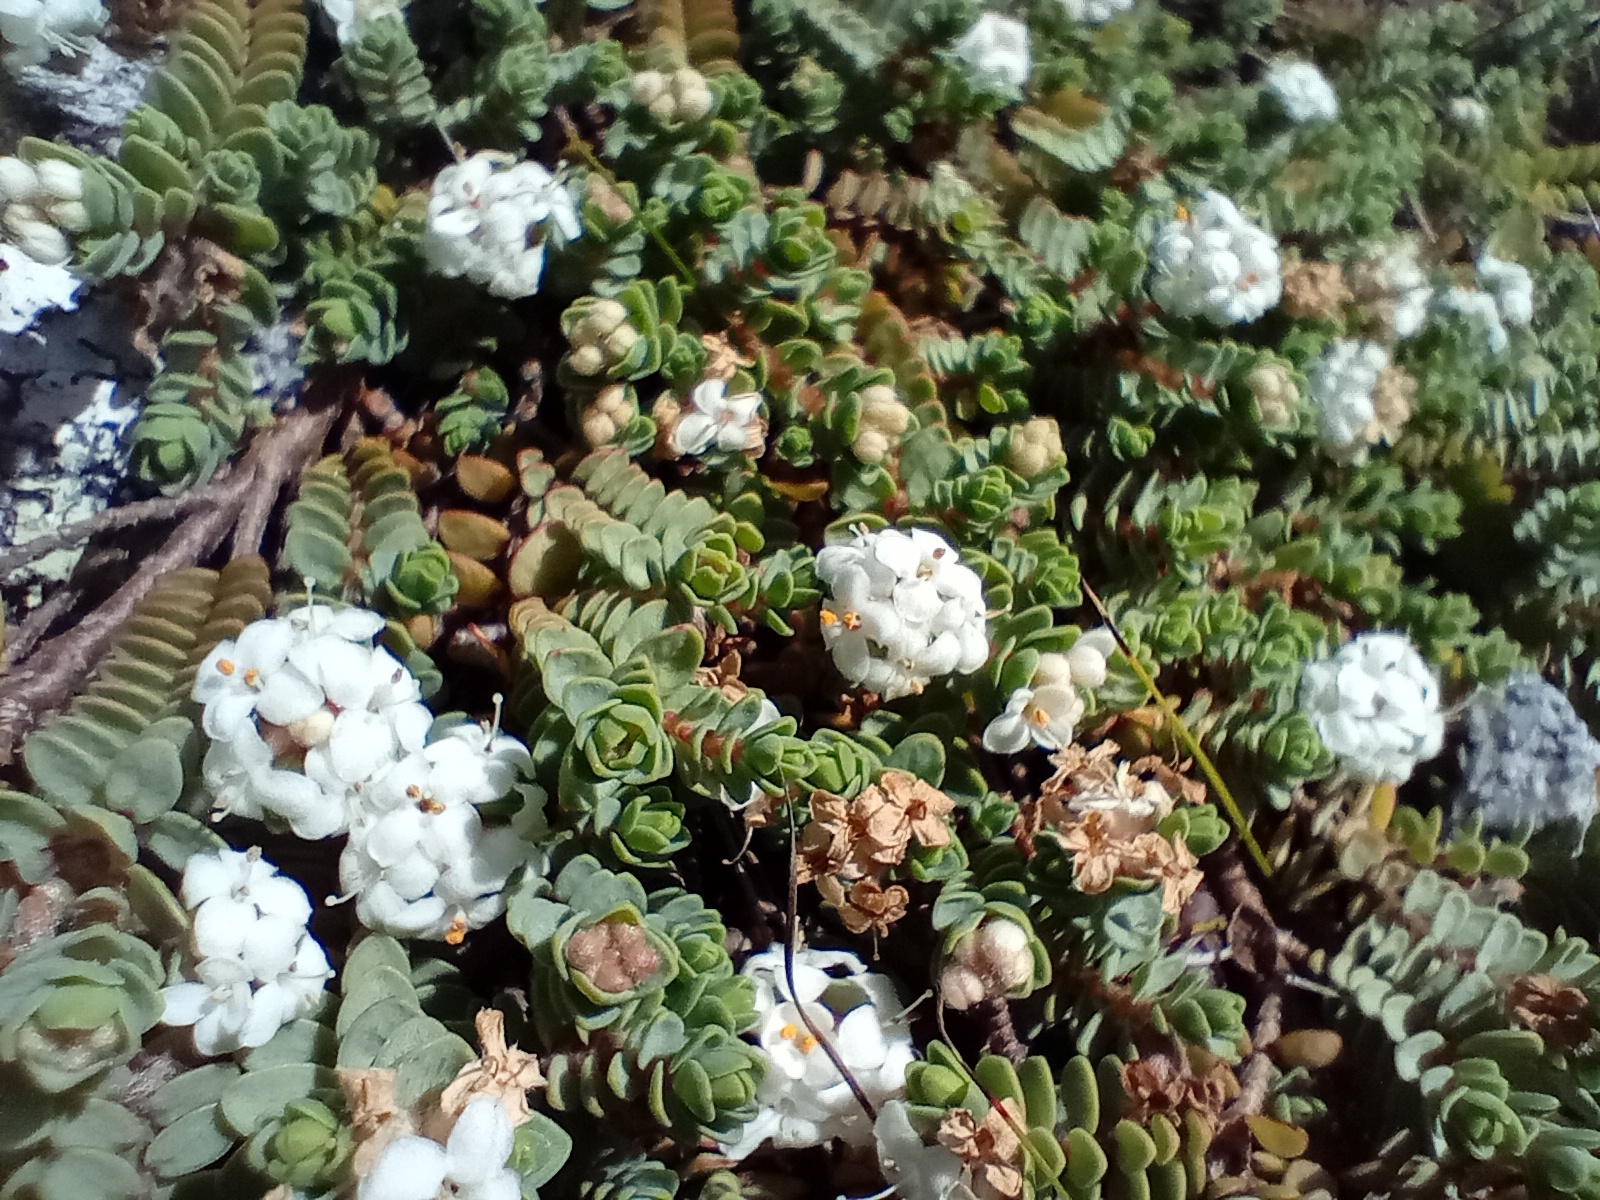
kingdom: Plantae
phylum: Tracheophyta
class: Magnoliopsida
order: Malvales
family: Thymelaeaceae
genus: Pimelea
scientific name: Pimelea carnosa
